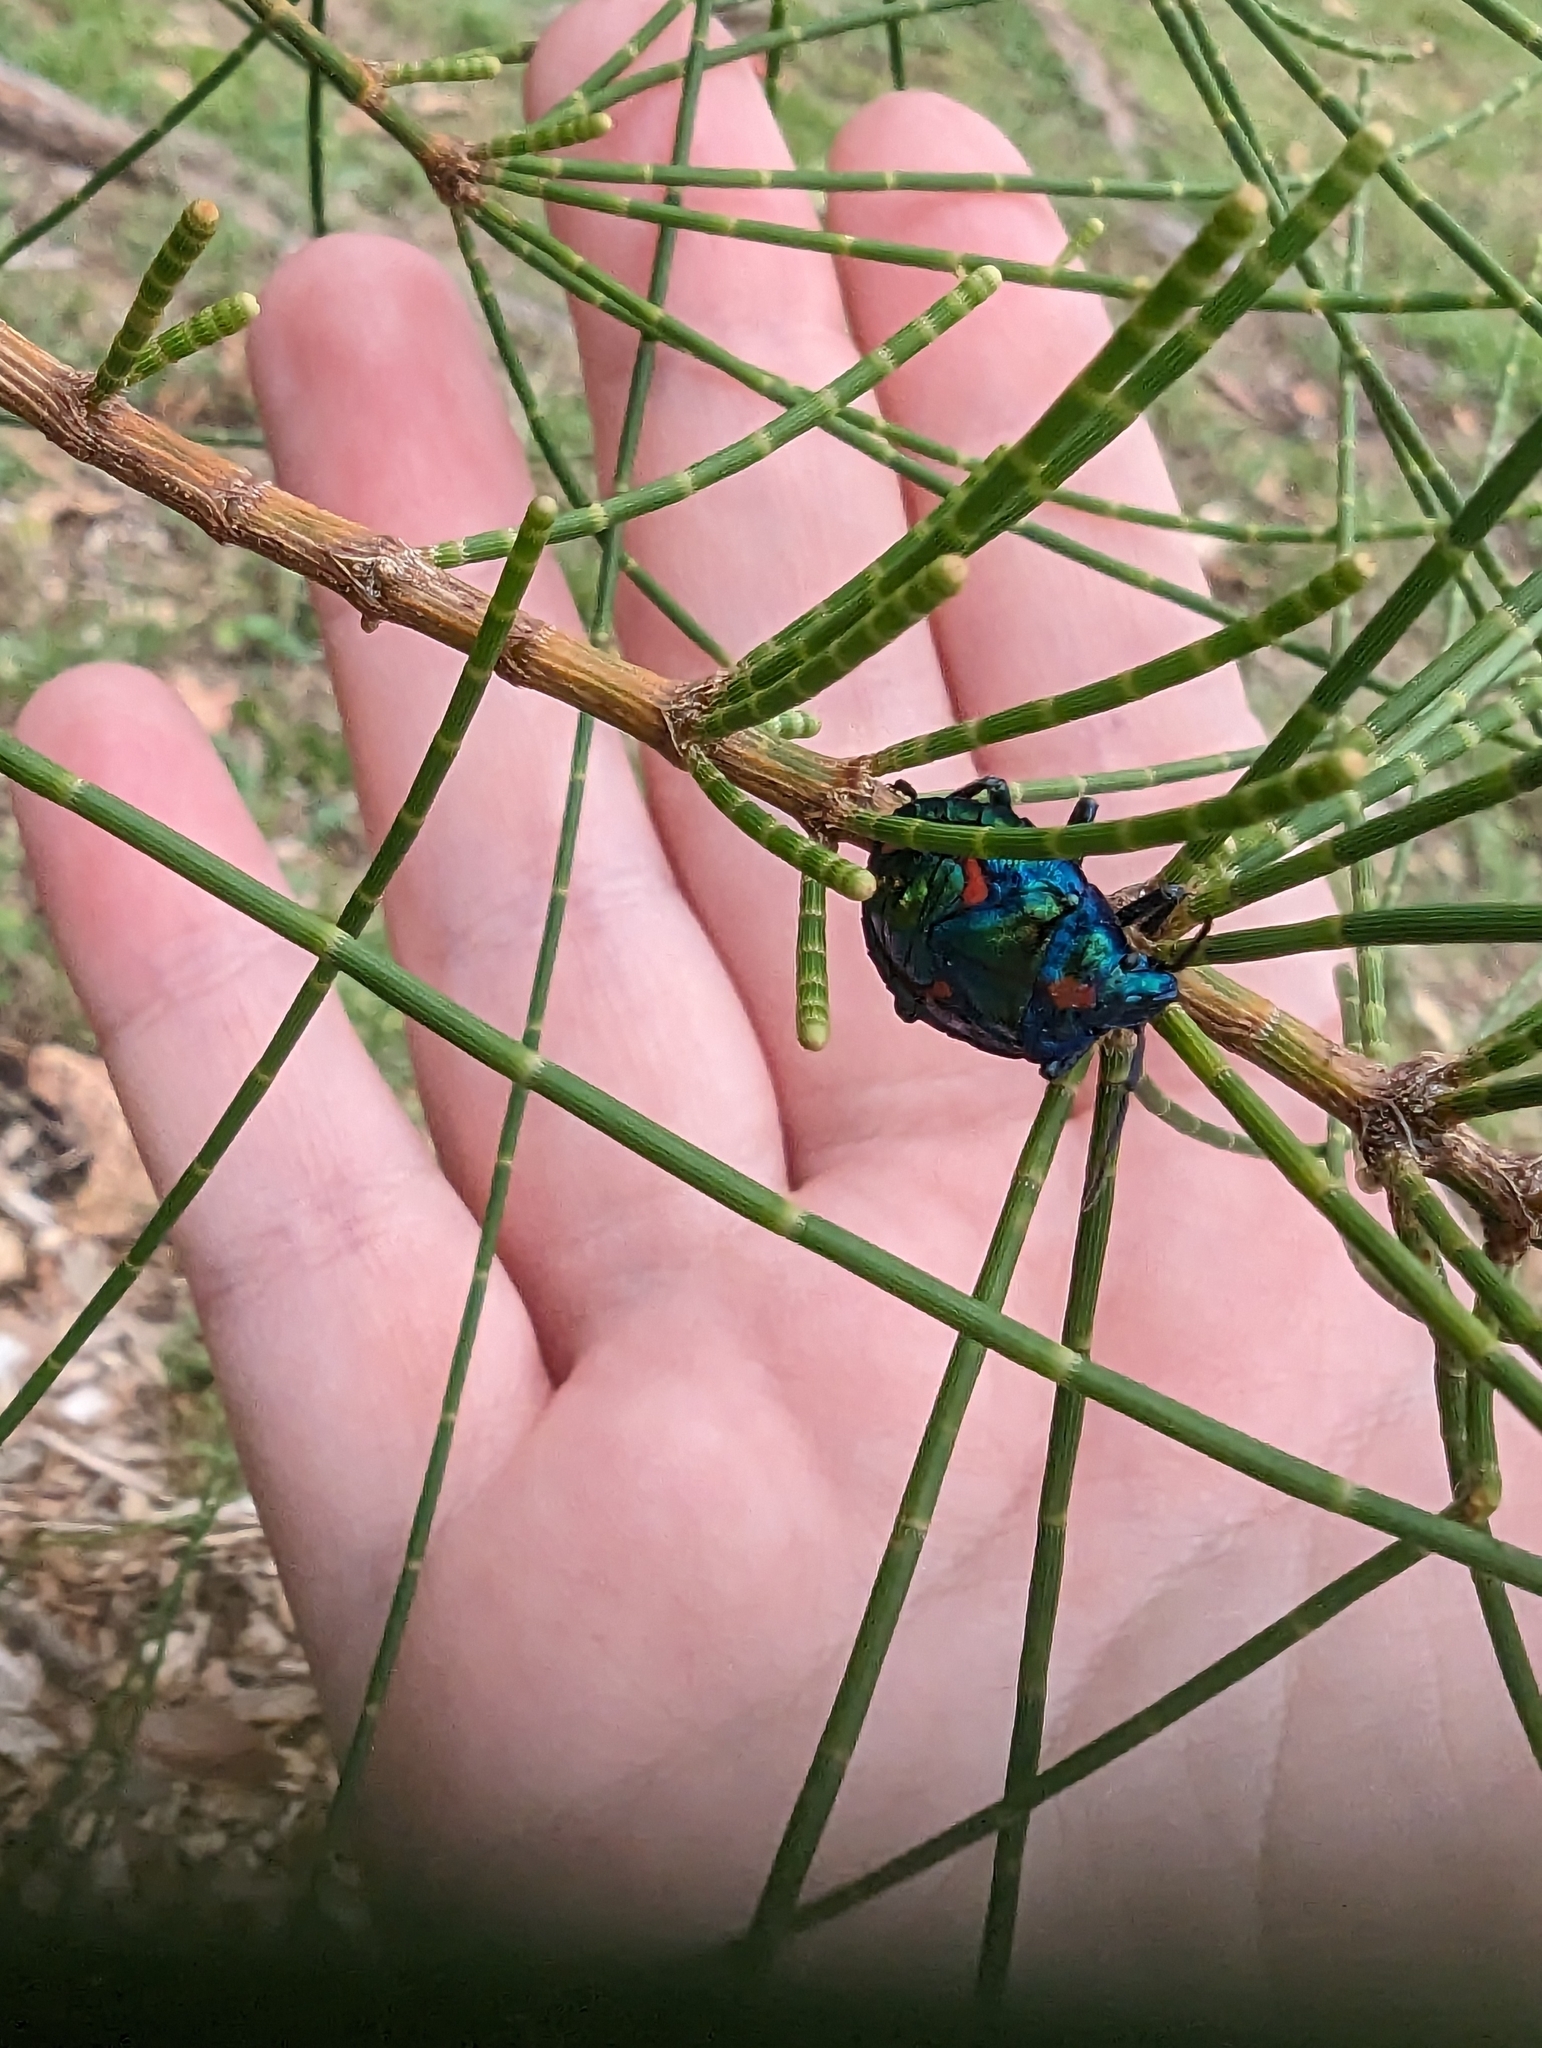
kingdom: Animalia
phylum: Arthropoda
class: Insecta
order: Hemiptera
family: Scutelleridae
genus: Tectocoris
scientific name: Tectocoris diophthalmus
